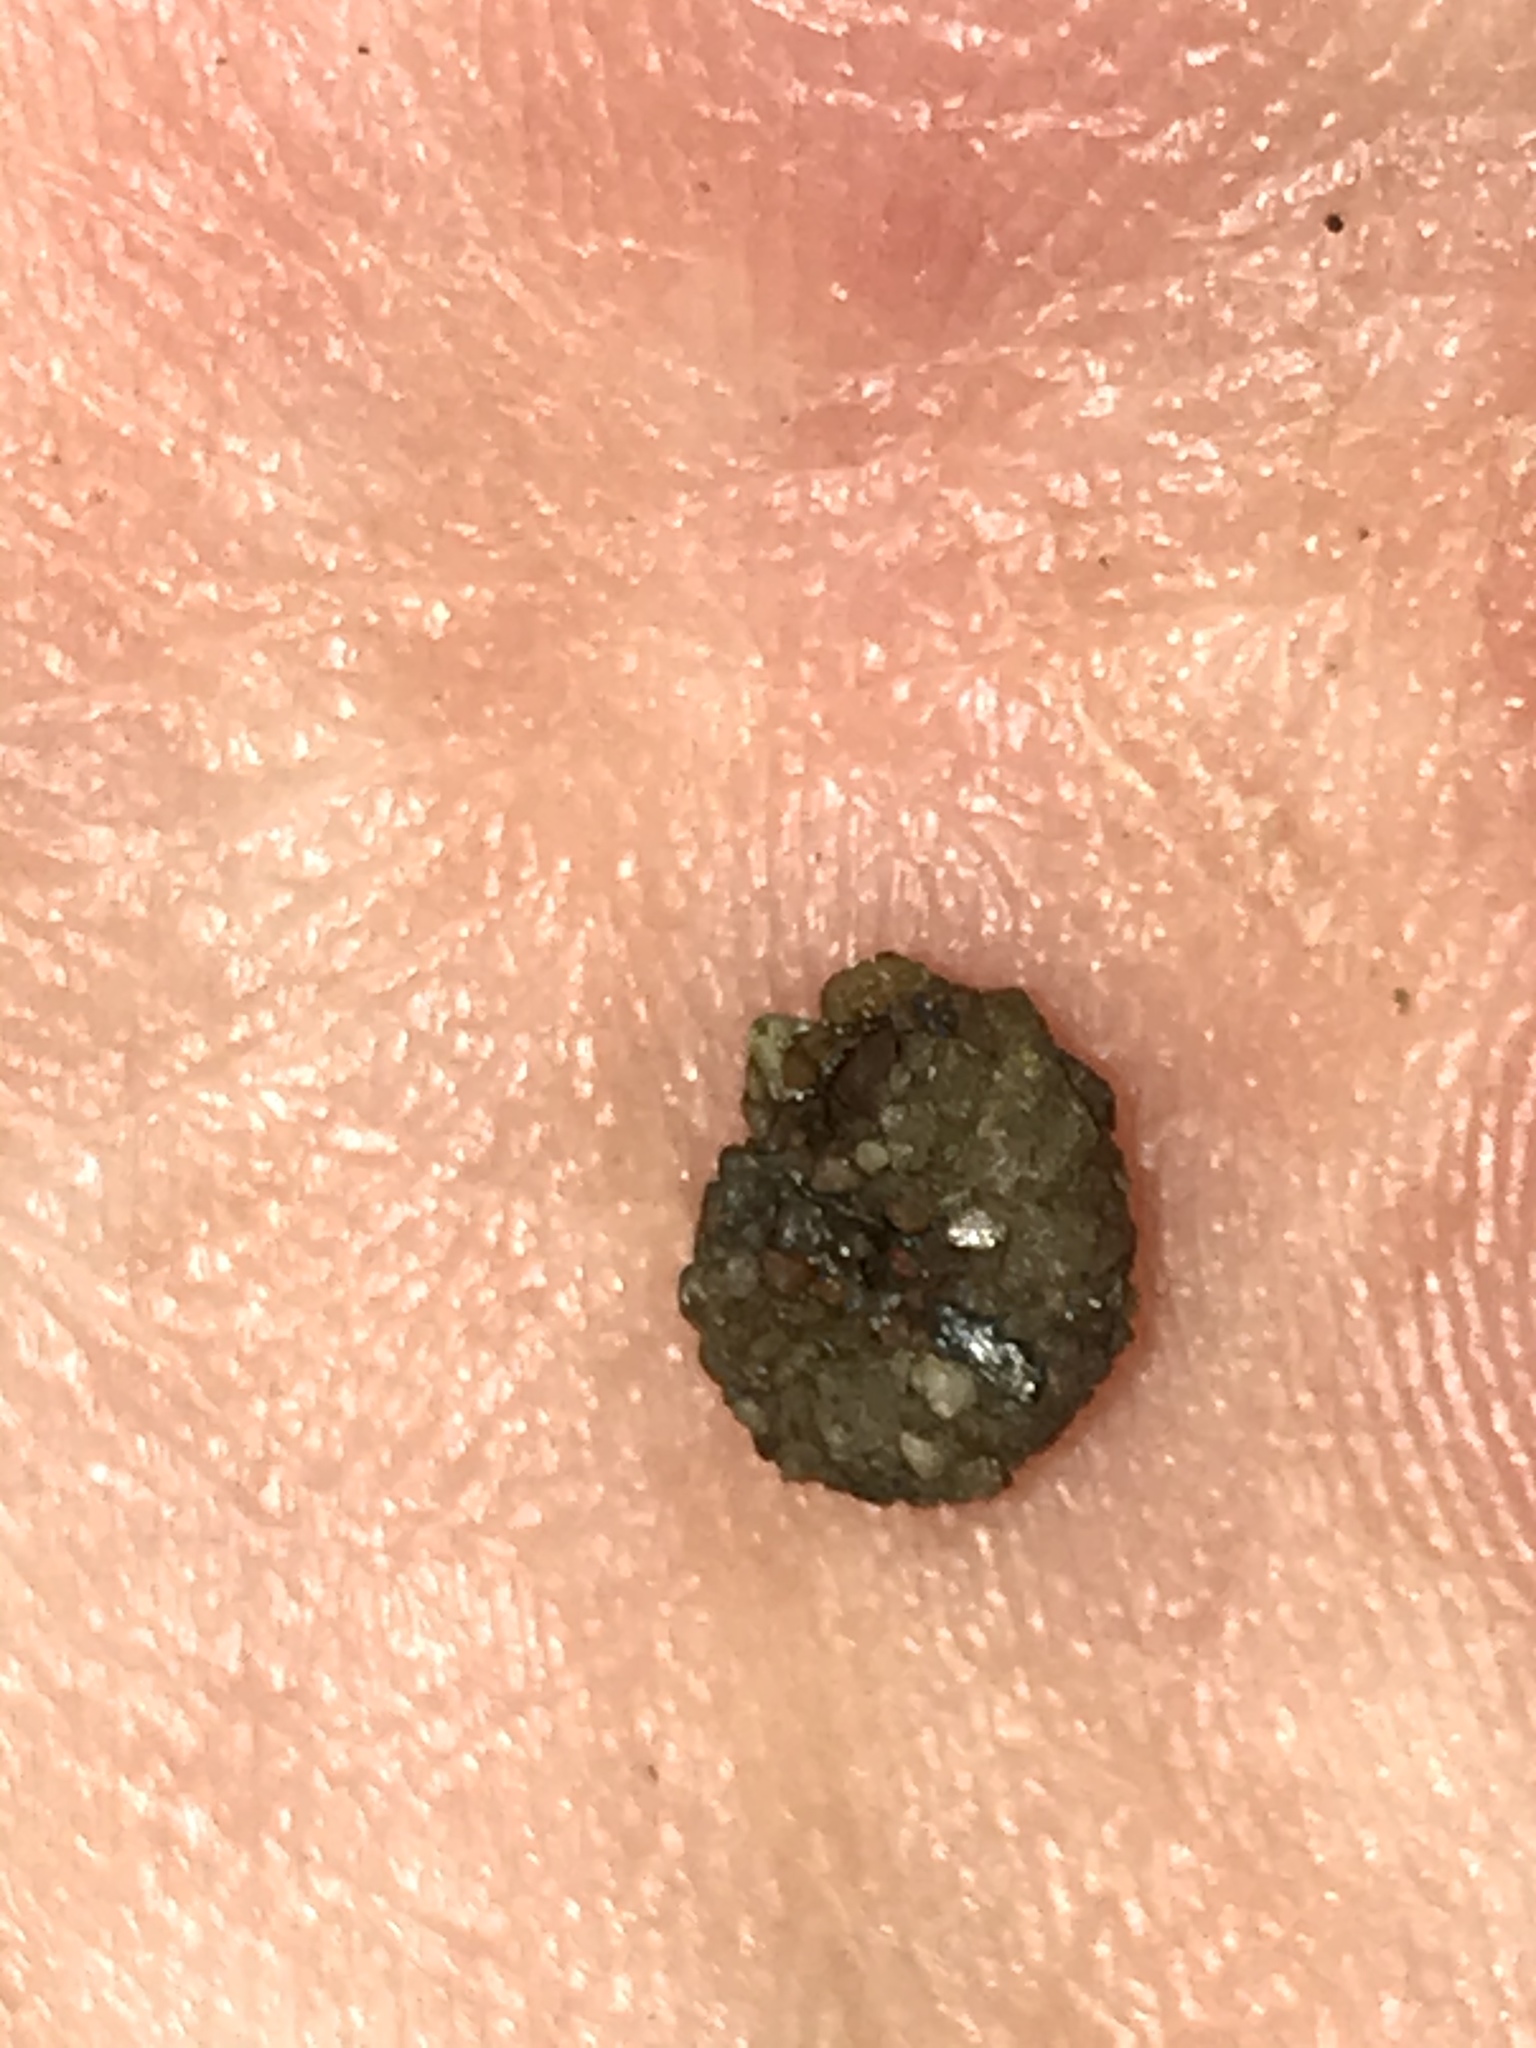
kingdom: Animalia
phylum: Arthropoda
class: Insecta
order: Trichoptera
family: Helicopsychidae
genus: Helicopsyche
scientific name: Helicopsyche
